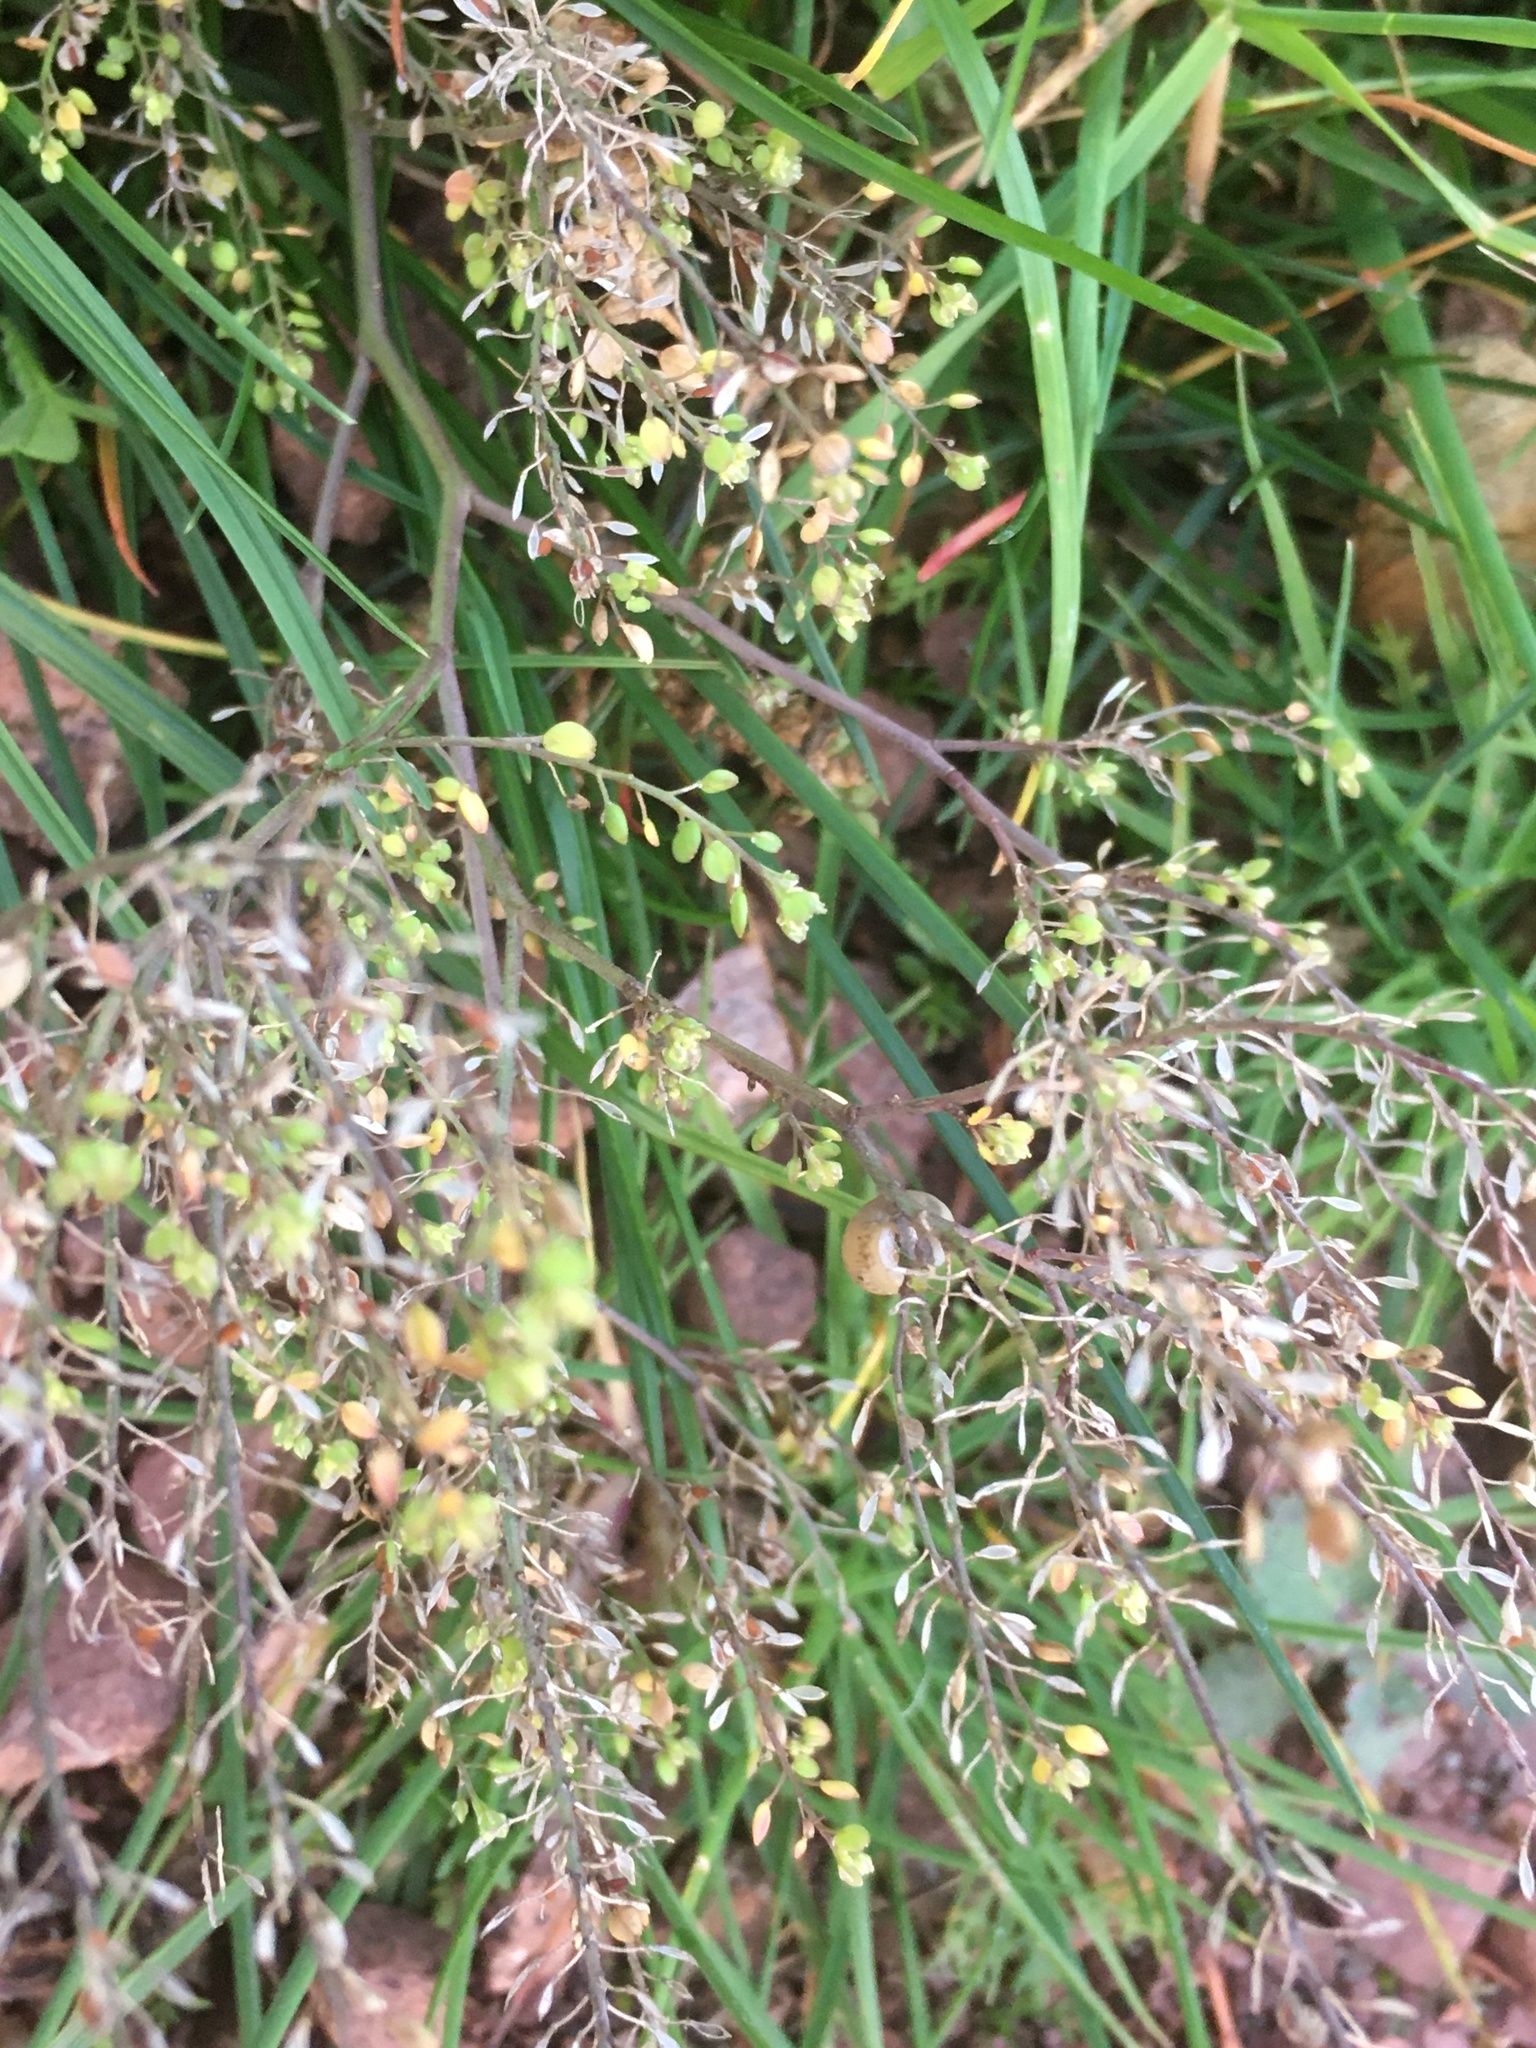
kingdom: Plantae
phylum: Tracheophyta
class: Magnoliopsida
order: Brassicales
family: Brassicaceae
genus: Lepidium
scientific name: Lepidium ruderale
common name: Narrow-leaved pepperwort
